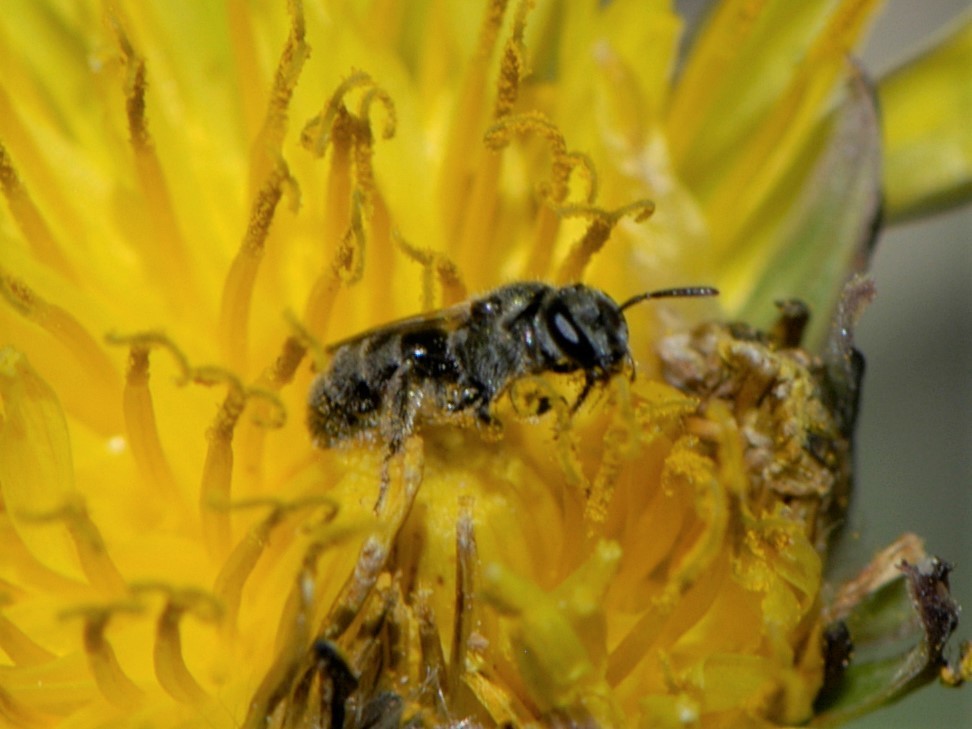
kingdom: Animalia
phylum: Arthropoda
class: Insecta
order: Hymenoptera
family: Halictidae
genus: Dialictus
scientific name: Dialictus
